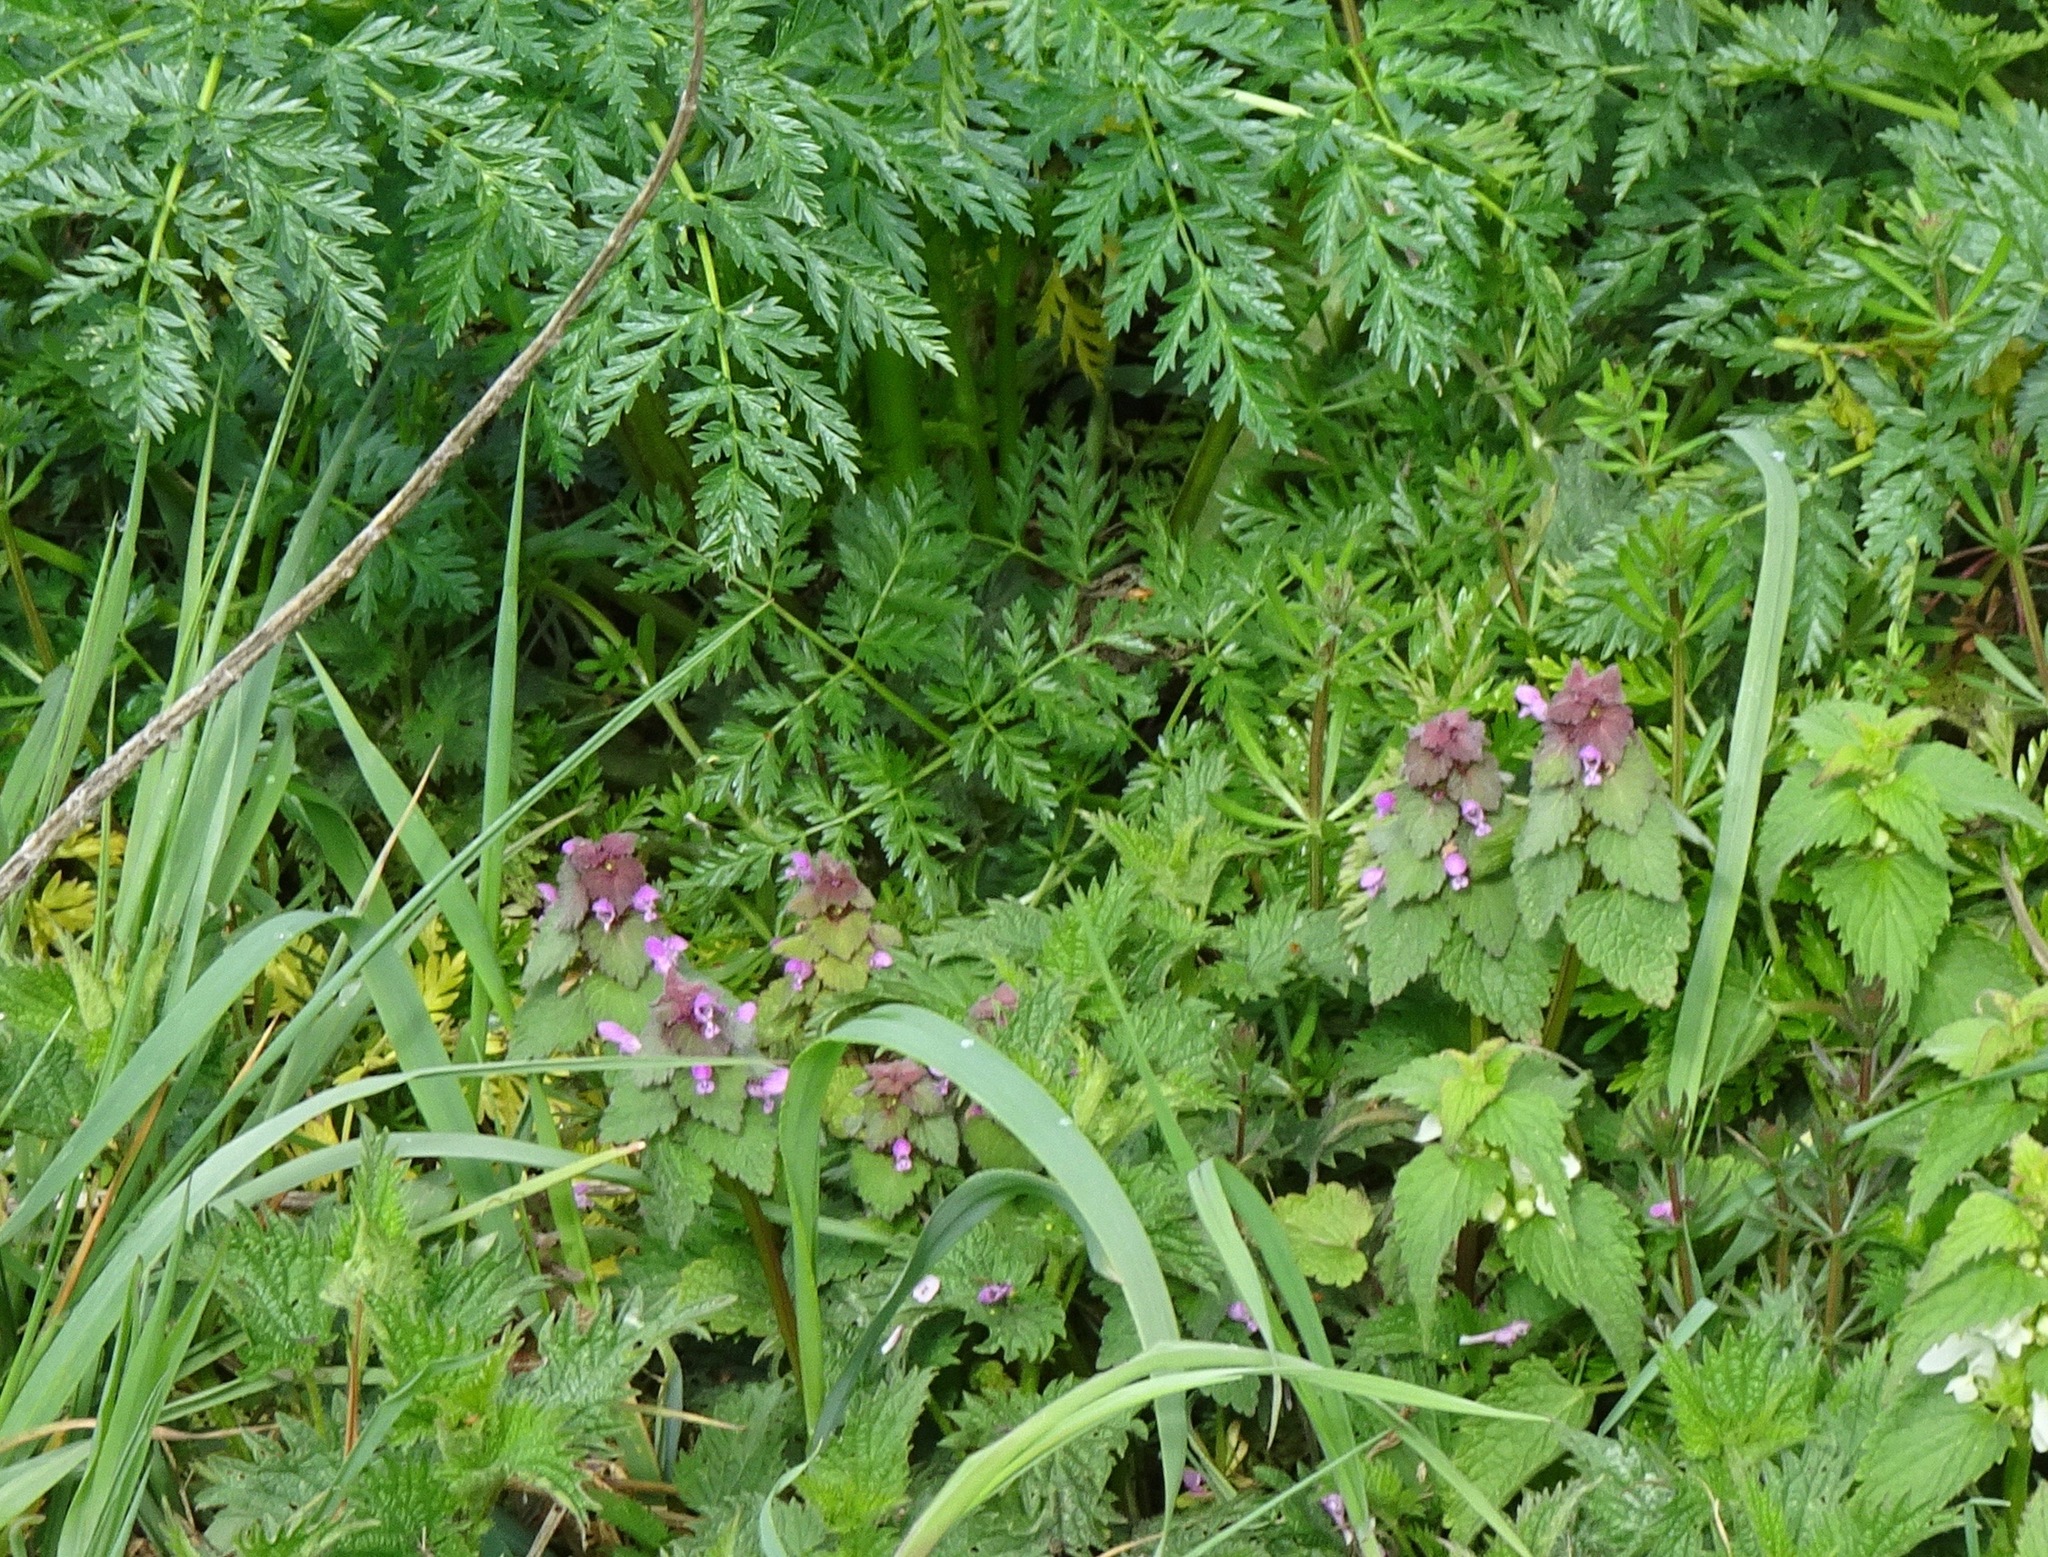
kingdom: Plantae
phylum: Tracheophyta
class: Magnoliopsida
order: Lamiales
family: Lamiaceae
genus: Lamium
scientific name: Lamium purpureum
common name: Red dead-nettle
